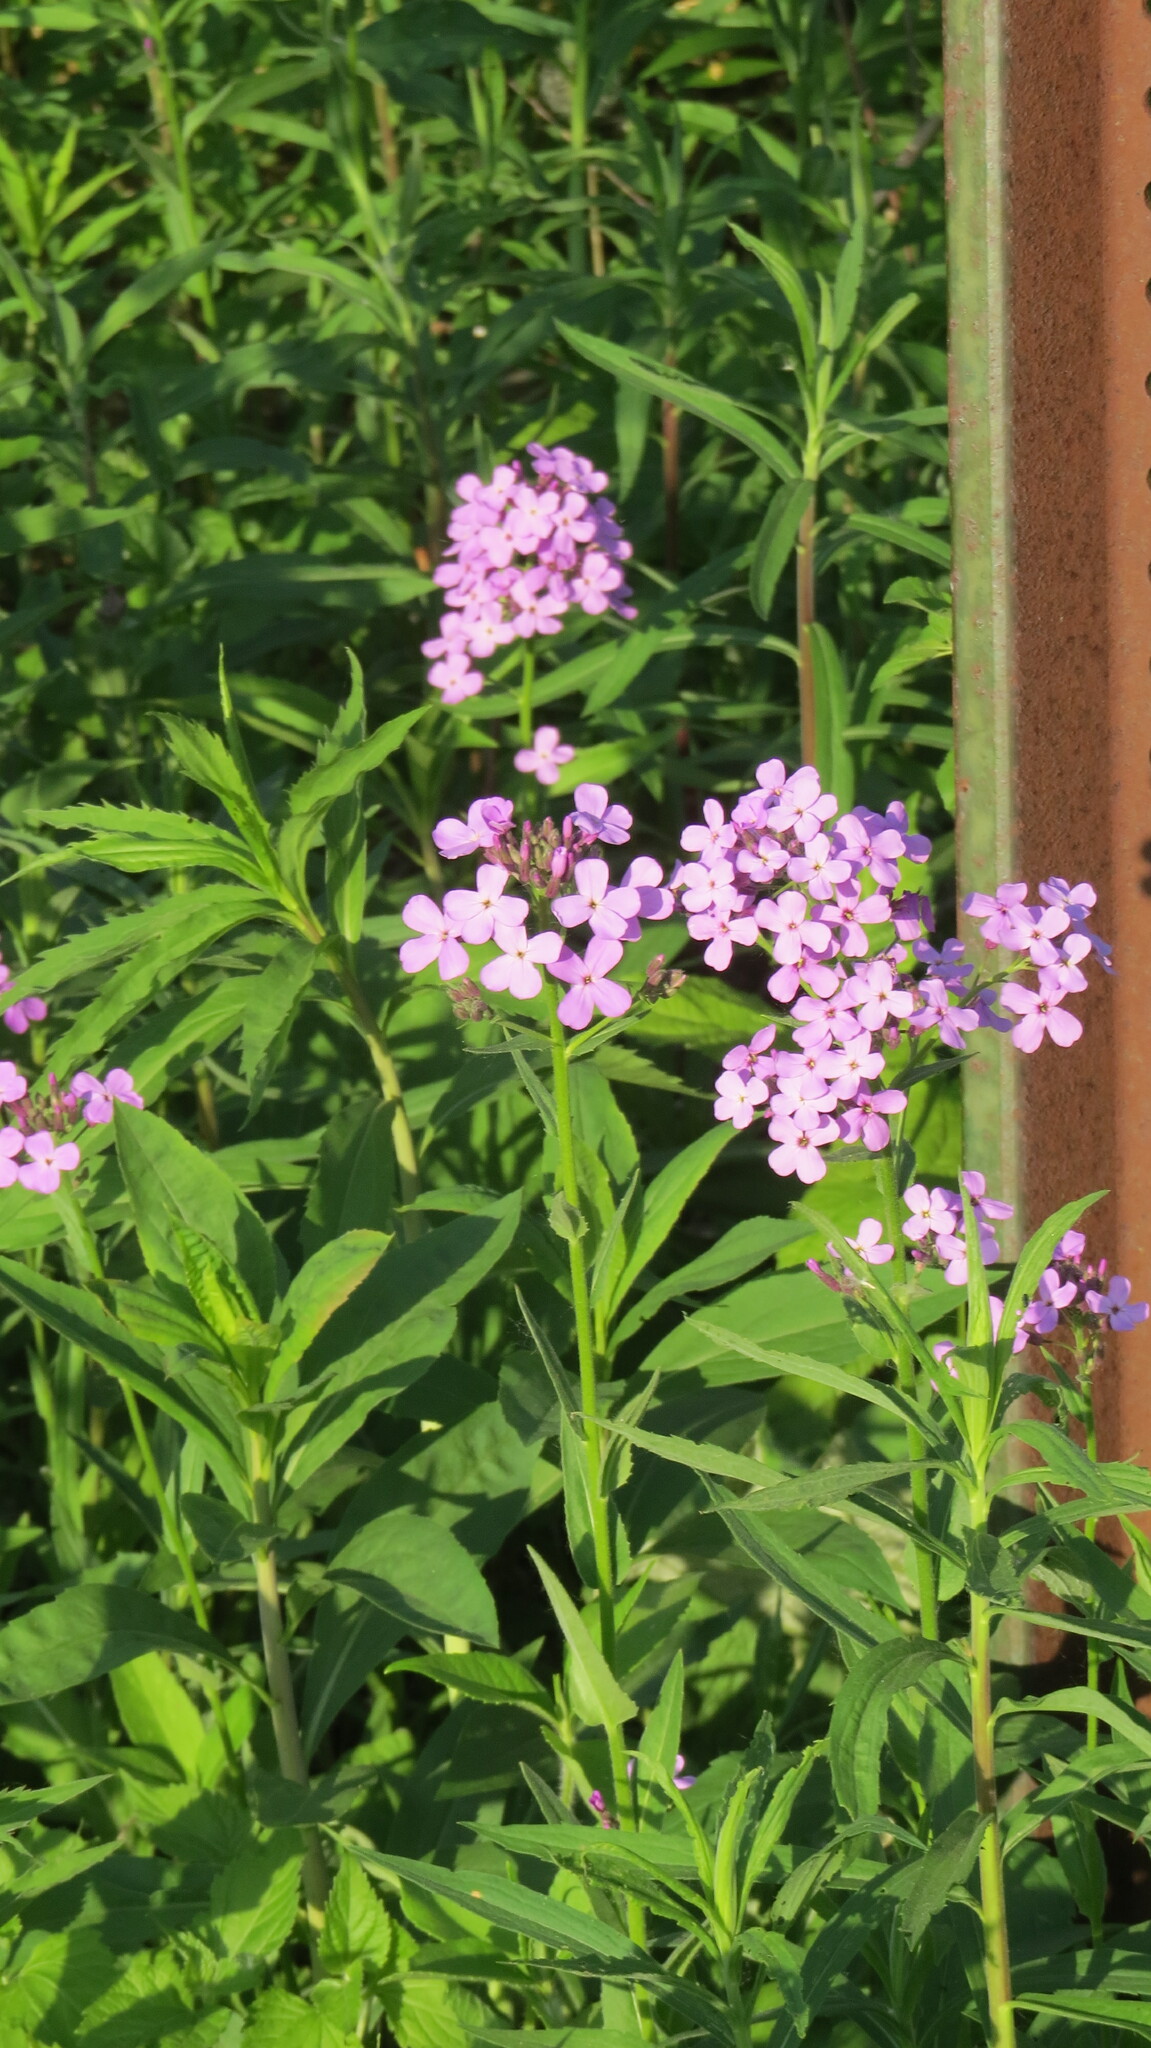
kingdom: Plantae
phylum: Tracheophyta
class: Magnoliopsida
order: Brassicales
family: Brassicaceae
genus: Hesperis
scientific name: Hesperis matronalis
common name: Dame's-violet
